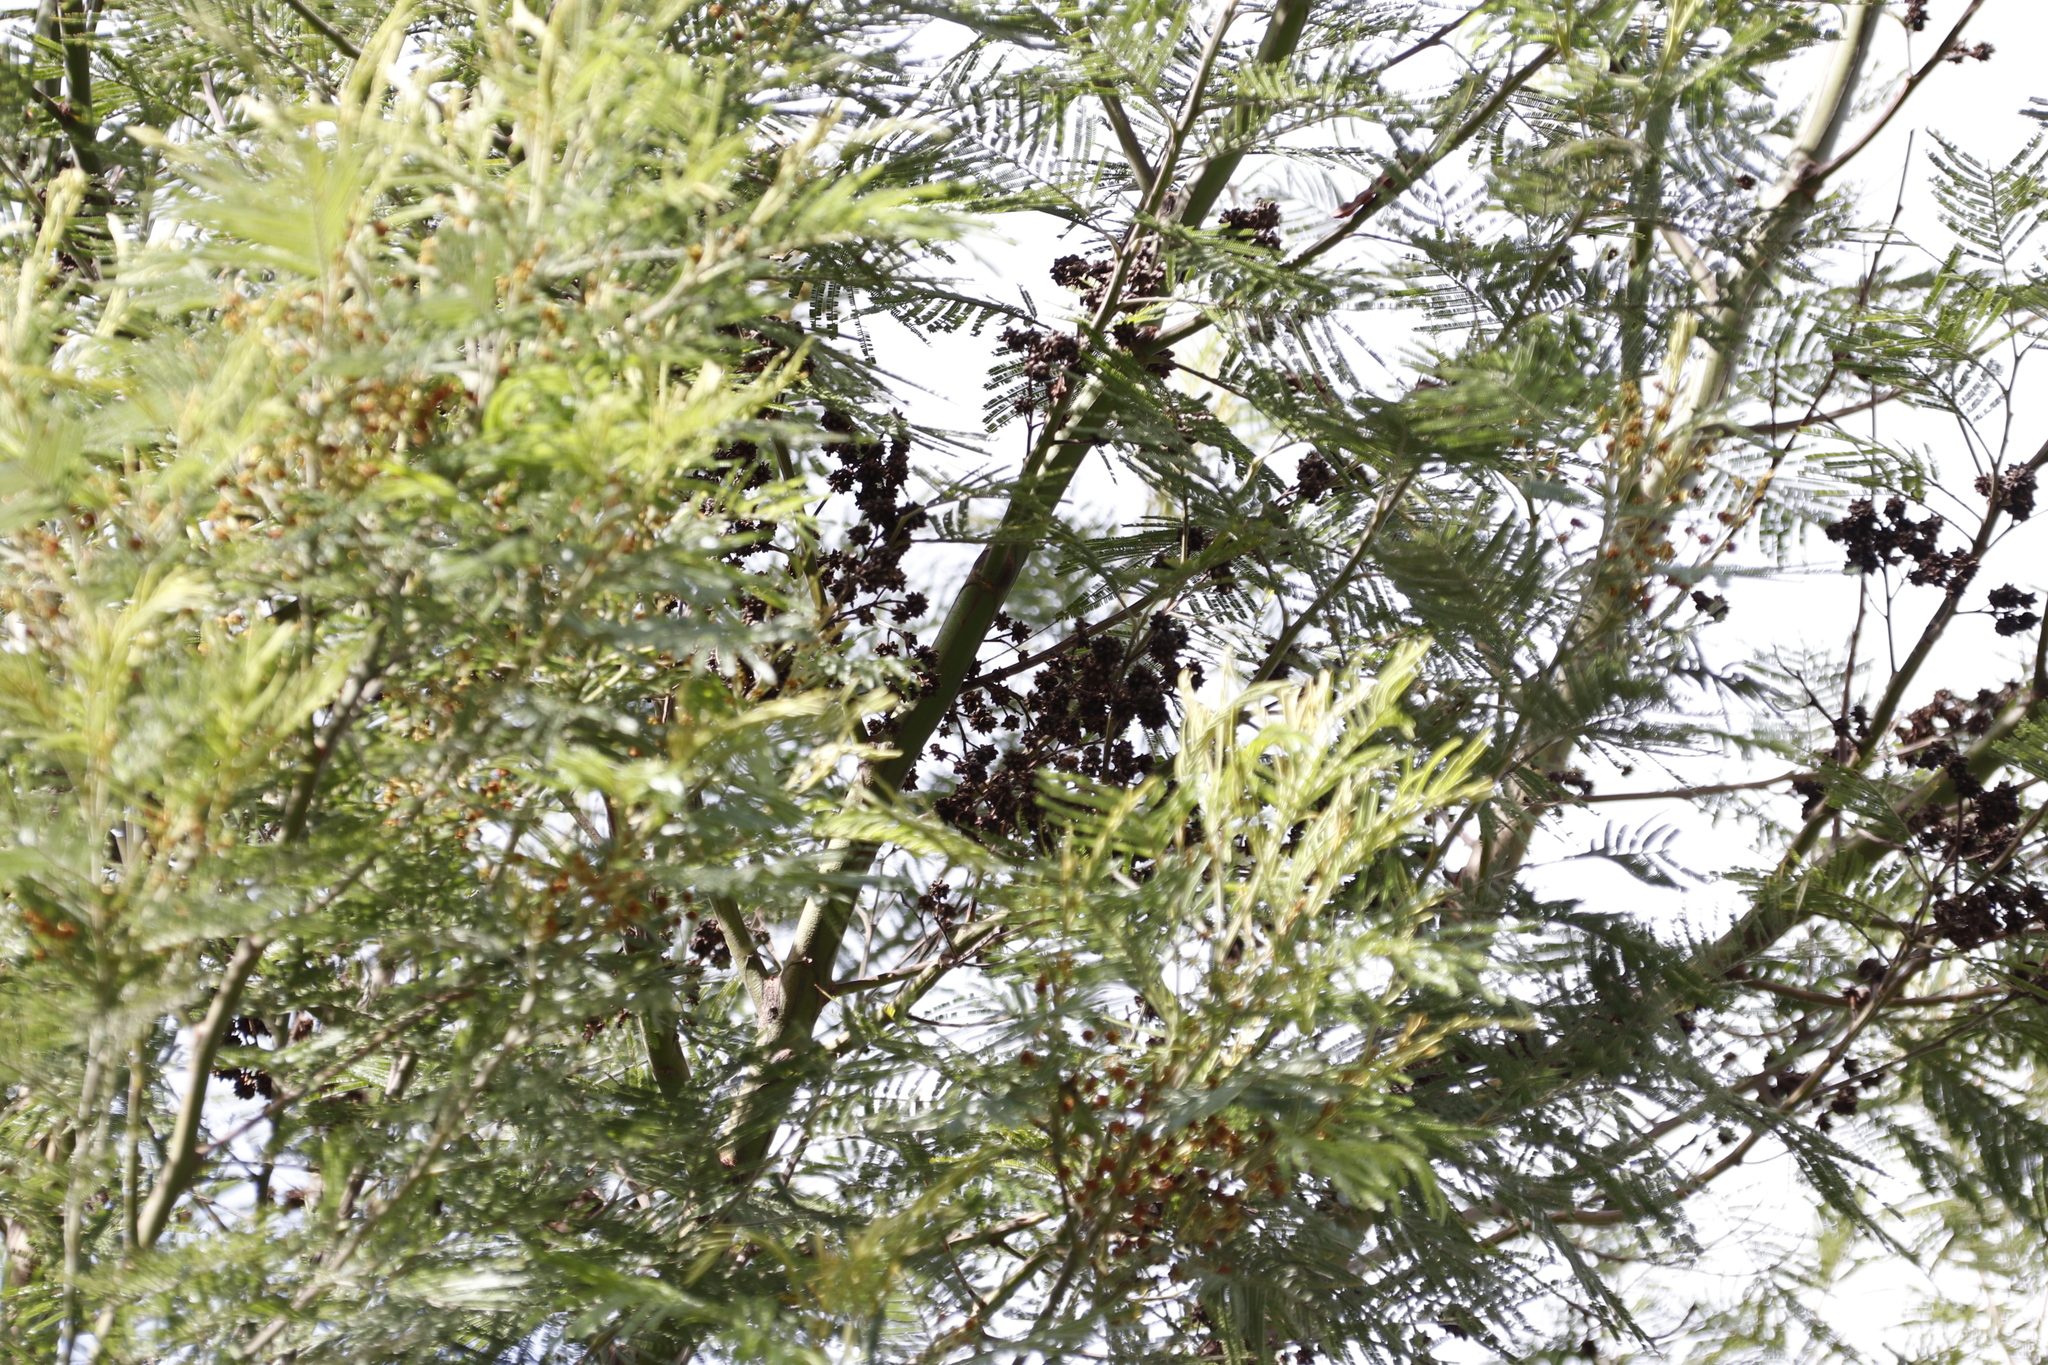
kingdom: Plantae
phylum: Tracheophyta
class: Magnoliopsida
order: Fabales
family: Fabaceae
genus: Acacia
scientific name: Acacia mearnsii
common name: Black wattle
